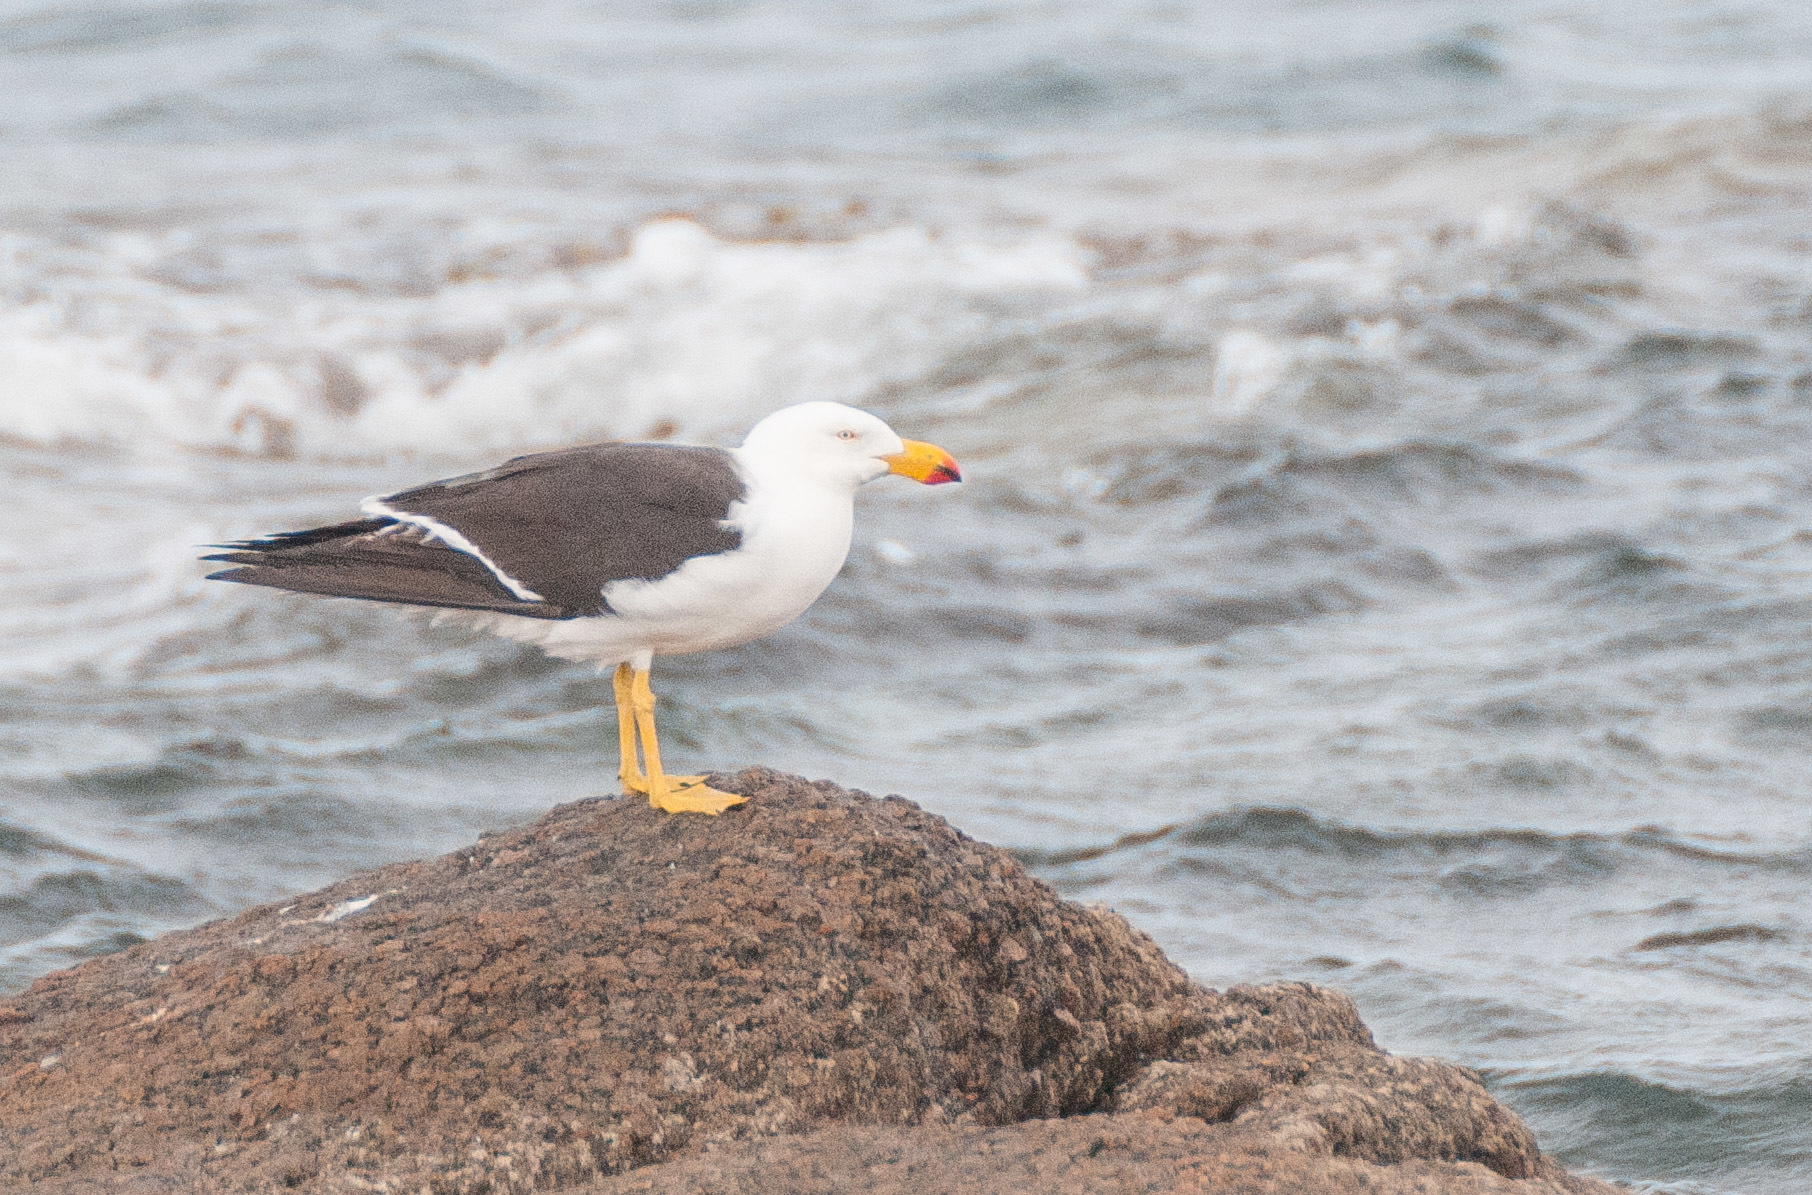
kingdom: Animalia
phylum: Chordata
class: Aves
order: Charadriiformes
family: Laridae
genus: Larus
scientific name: Larus pacificus
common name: Pacific gull
